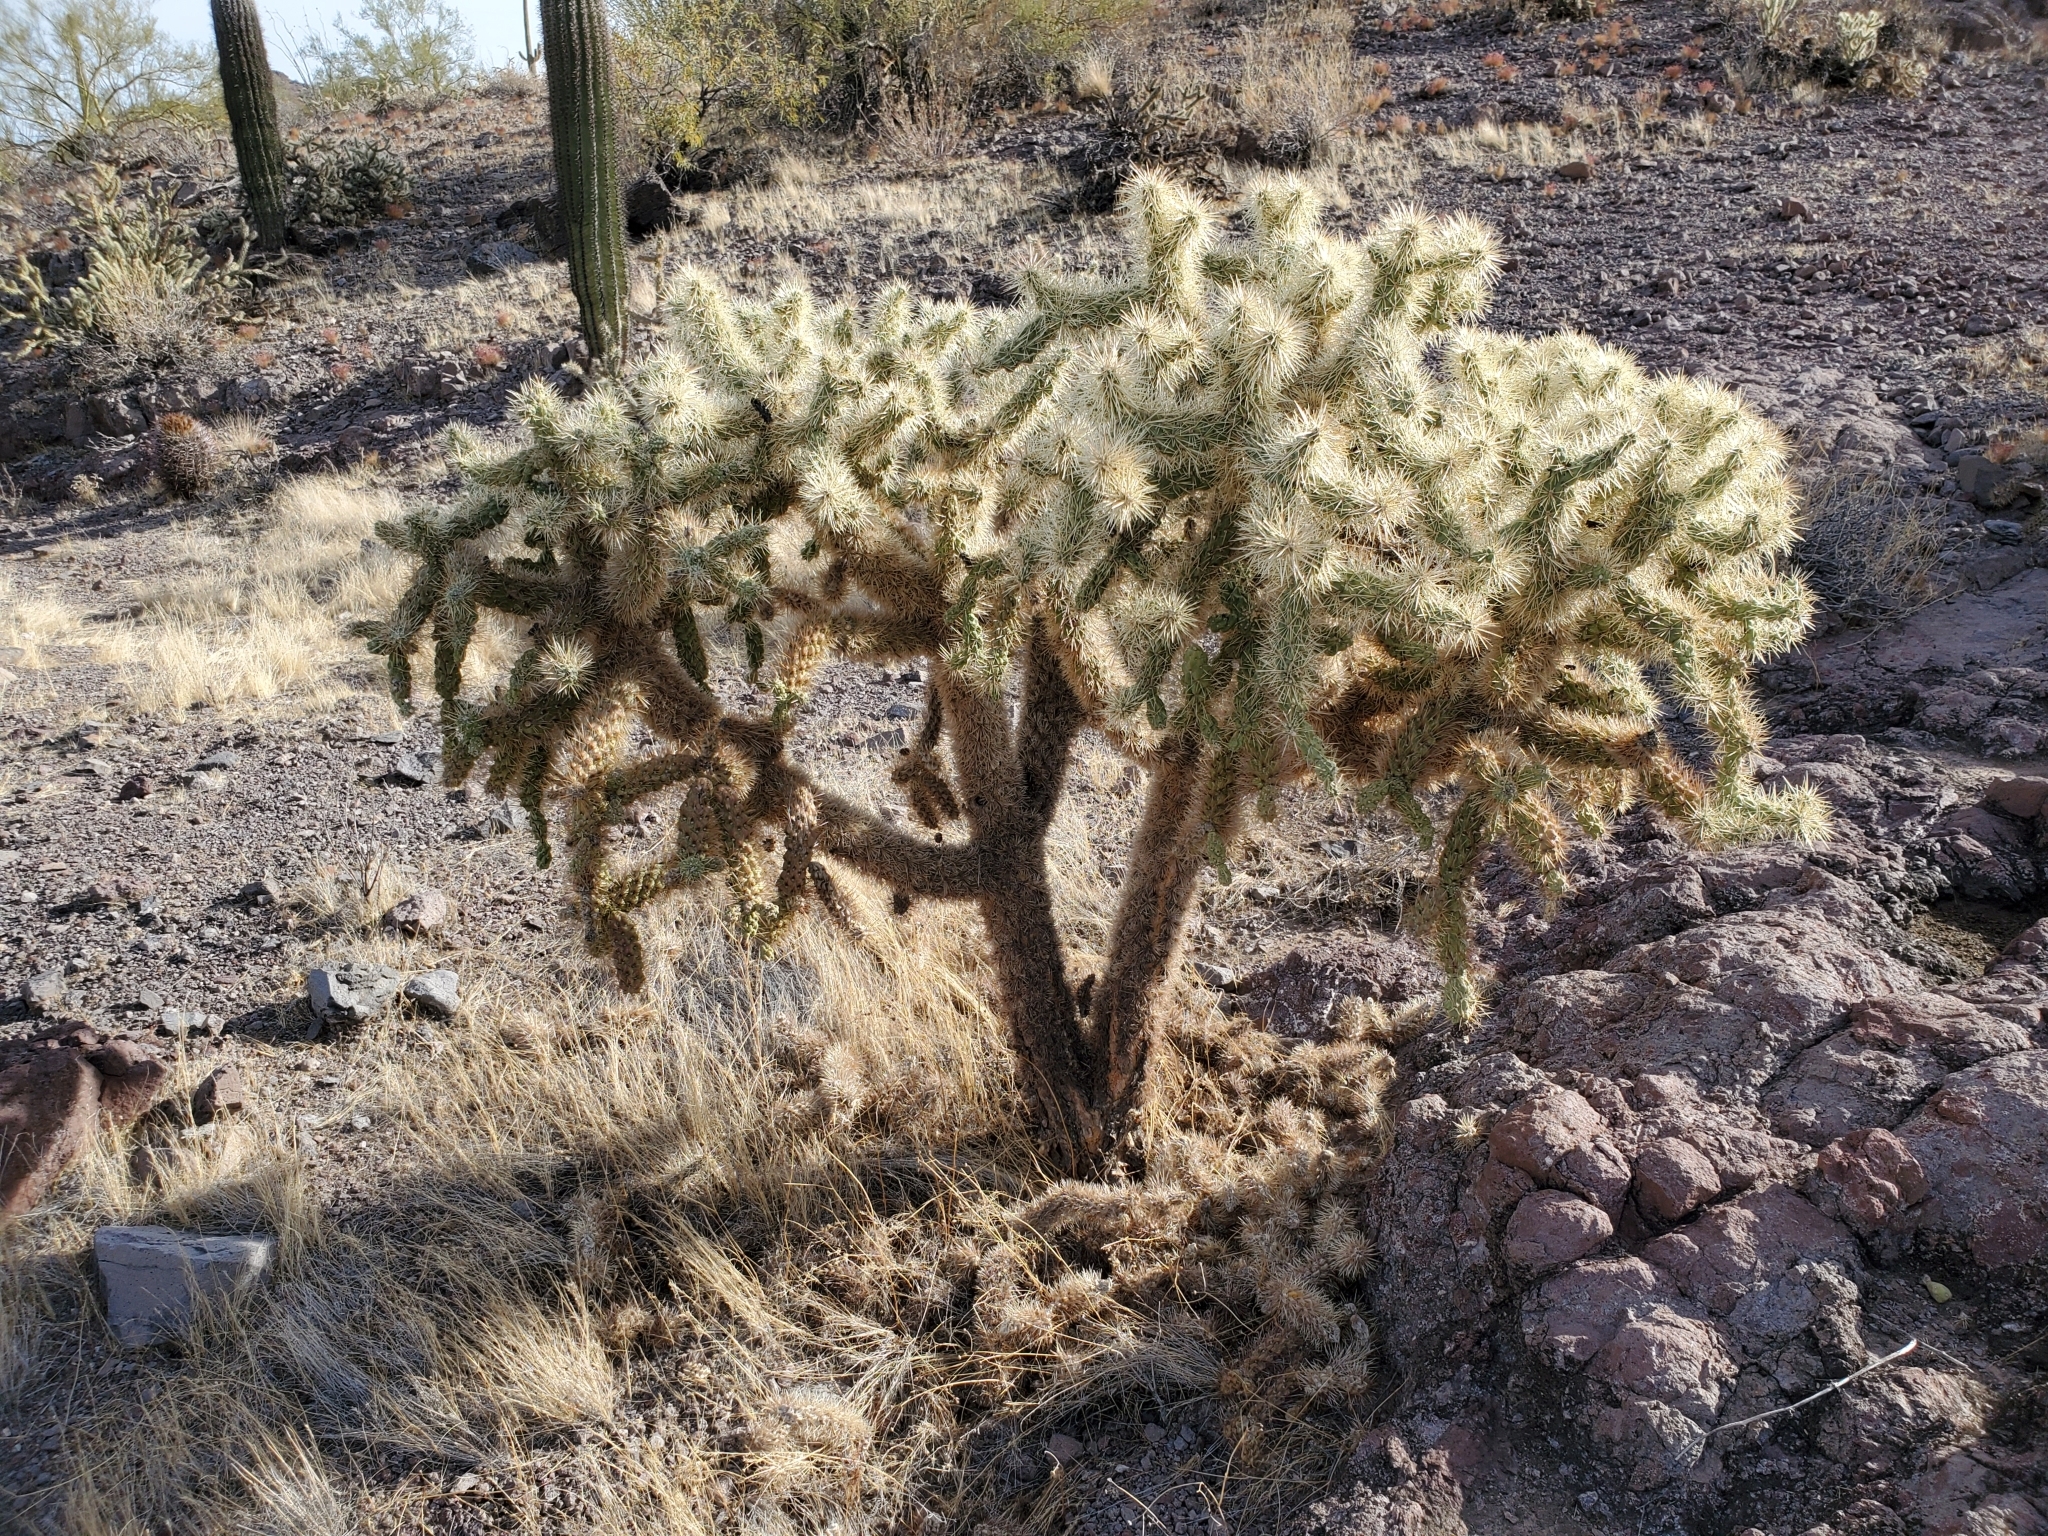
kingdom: Plantae
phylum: Tracheophyta
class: Magnoliopsida
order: Caryophyllales
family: Cactaceae
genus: Cylindropuntia
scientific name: Cylindropuntia fulgida
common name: Jumping cholla
